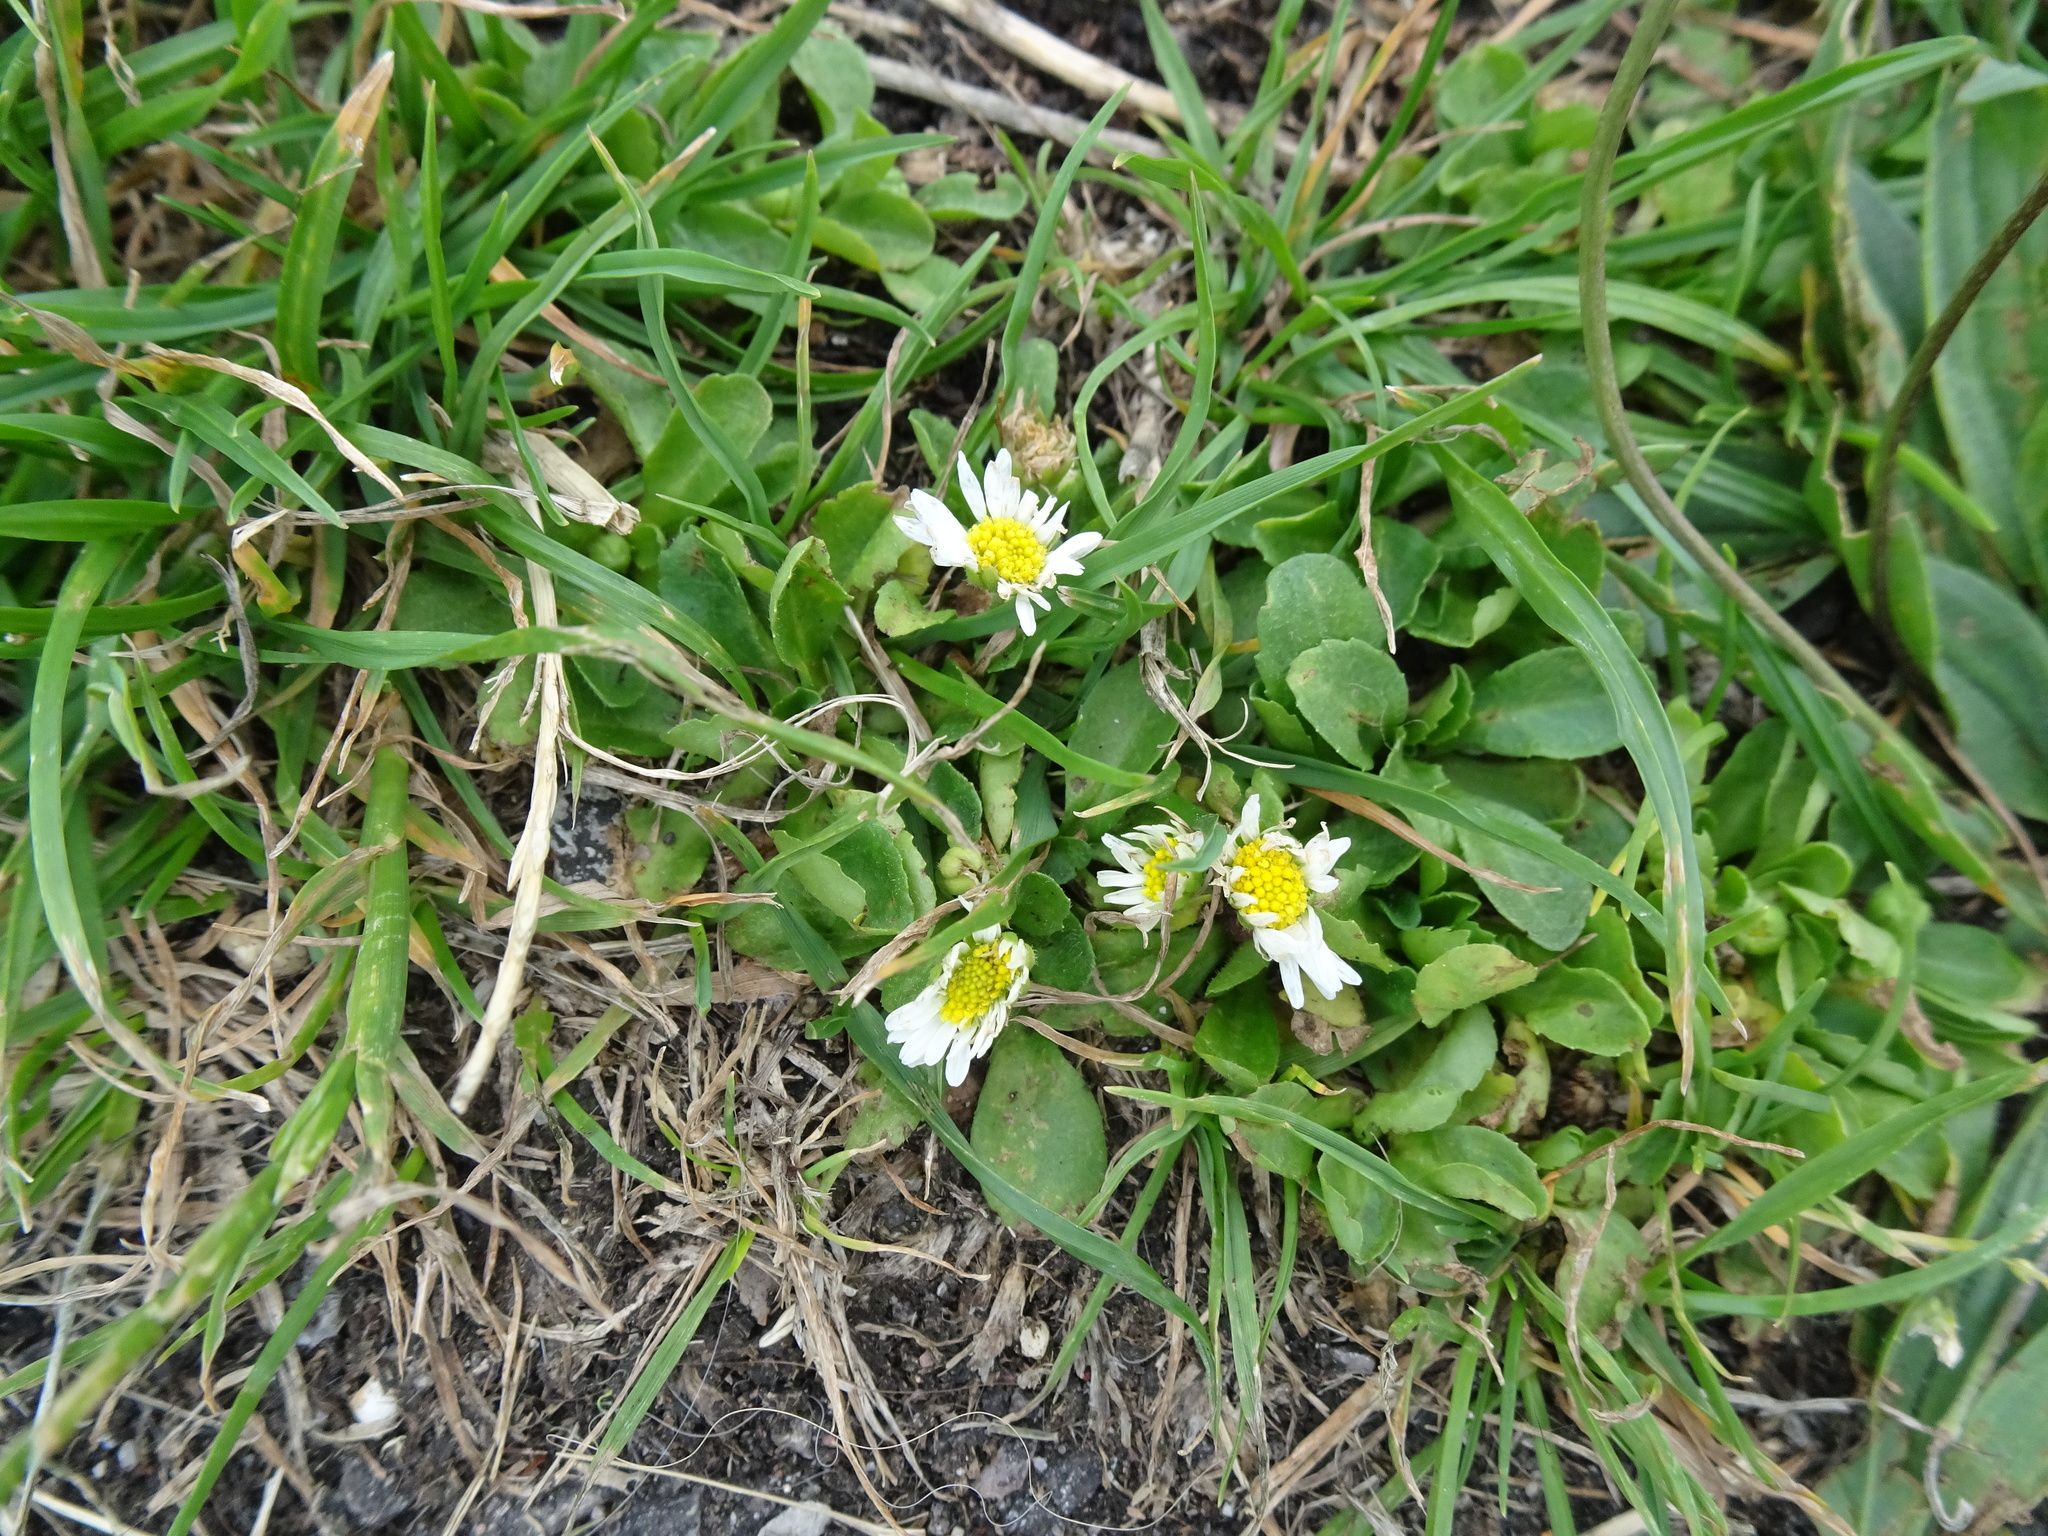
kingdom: Plantae
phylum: Tracheophyta
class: Magnoliopsida
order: Asterales
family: Asteraceae
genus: Bellis
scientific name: Bellis perennis
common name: Lawndaisy
